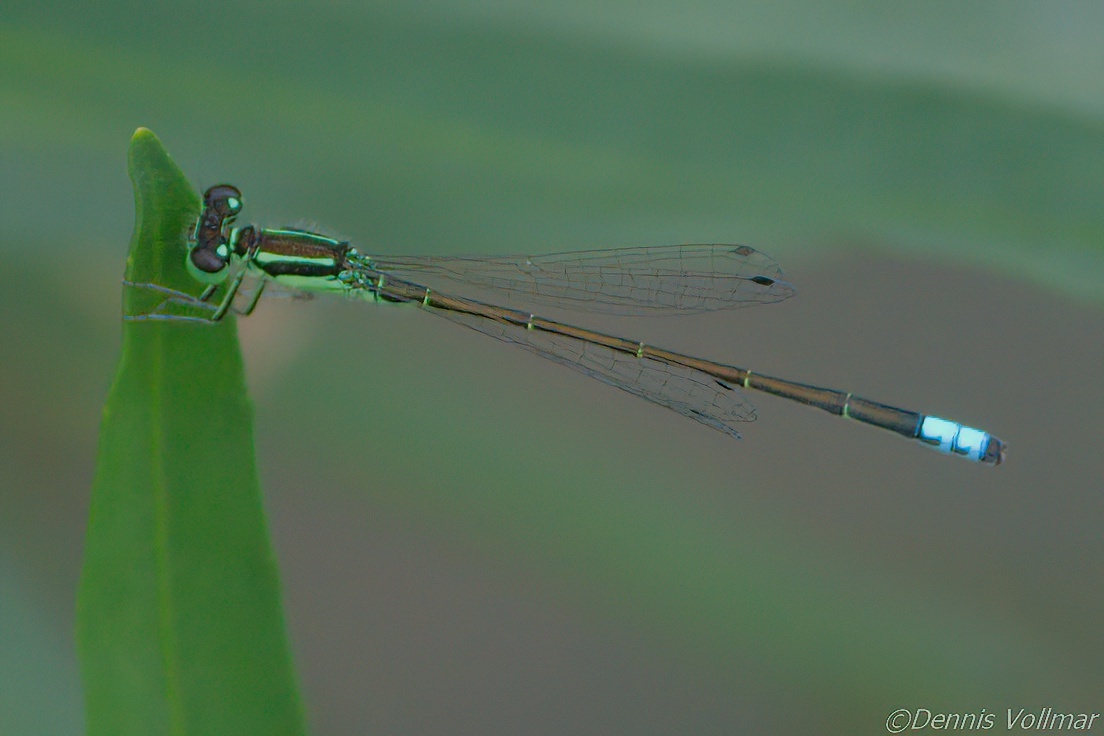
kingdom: Animalia
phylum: Arthropoda
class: Insecta
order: Odonata
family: Coenagrionidae
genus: Ischnura
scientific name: Ischnura verticalis
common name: Eastern forktail
